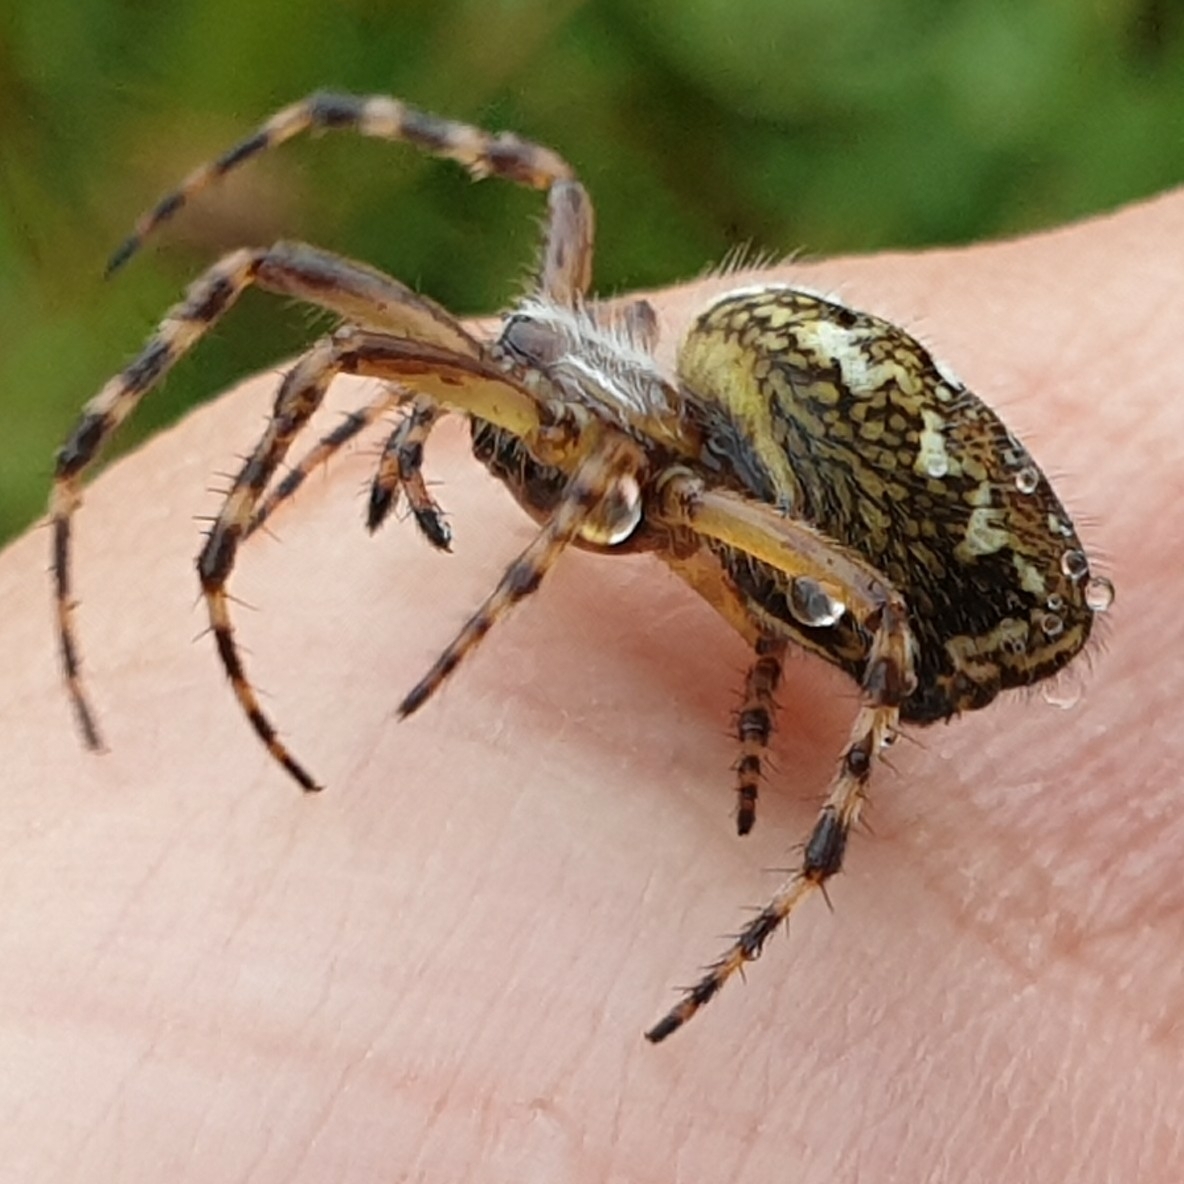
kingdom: Animalia
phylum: Arthropoda
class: Arachnida
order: Araneae
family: Araneidae
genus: Aculepeira
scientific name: Aculepeira ceropegia
